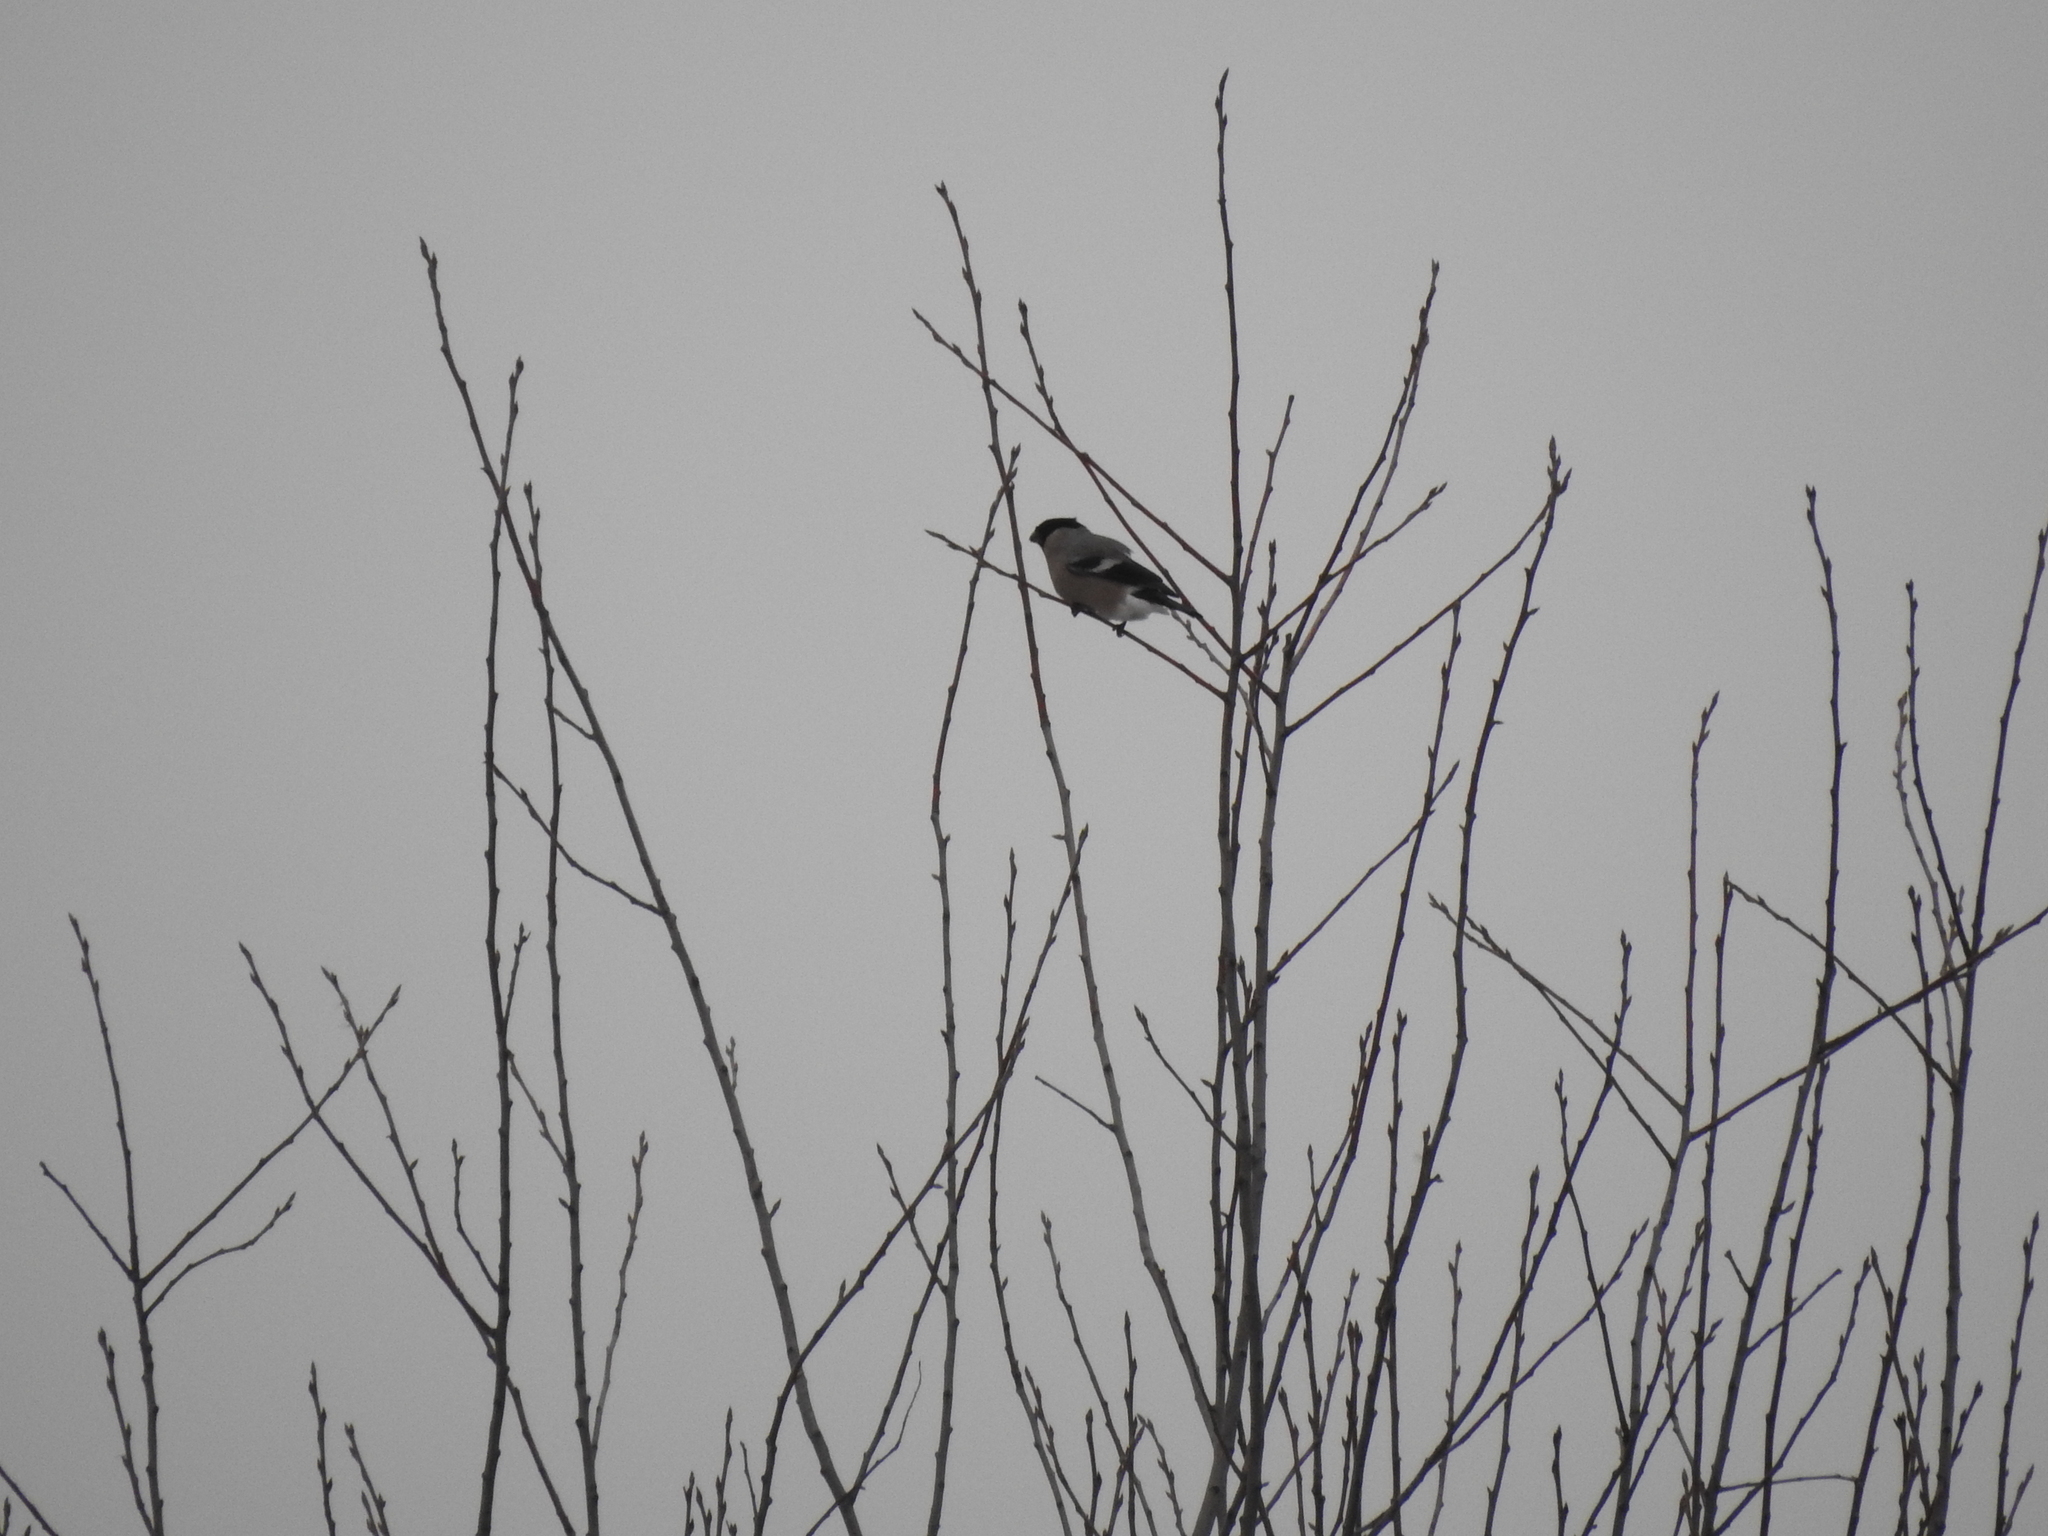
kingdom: Animalia
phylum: Chordata
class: Aves
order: Passeriformes
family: Fringillidae
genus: Pyrrhula
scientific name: Pyrrhula pyrrhula
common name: Eurasian bullfinch
